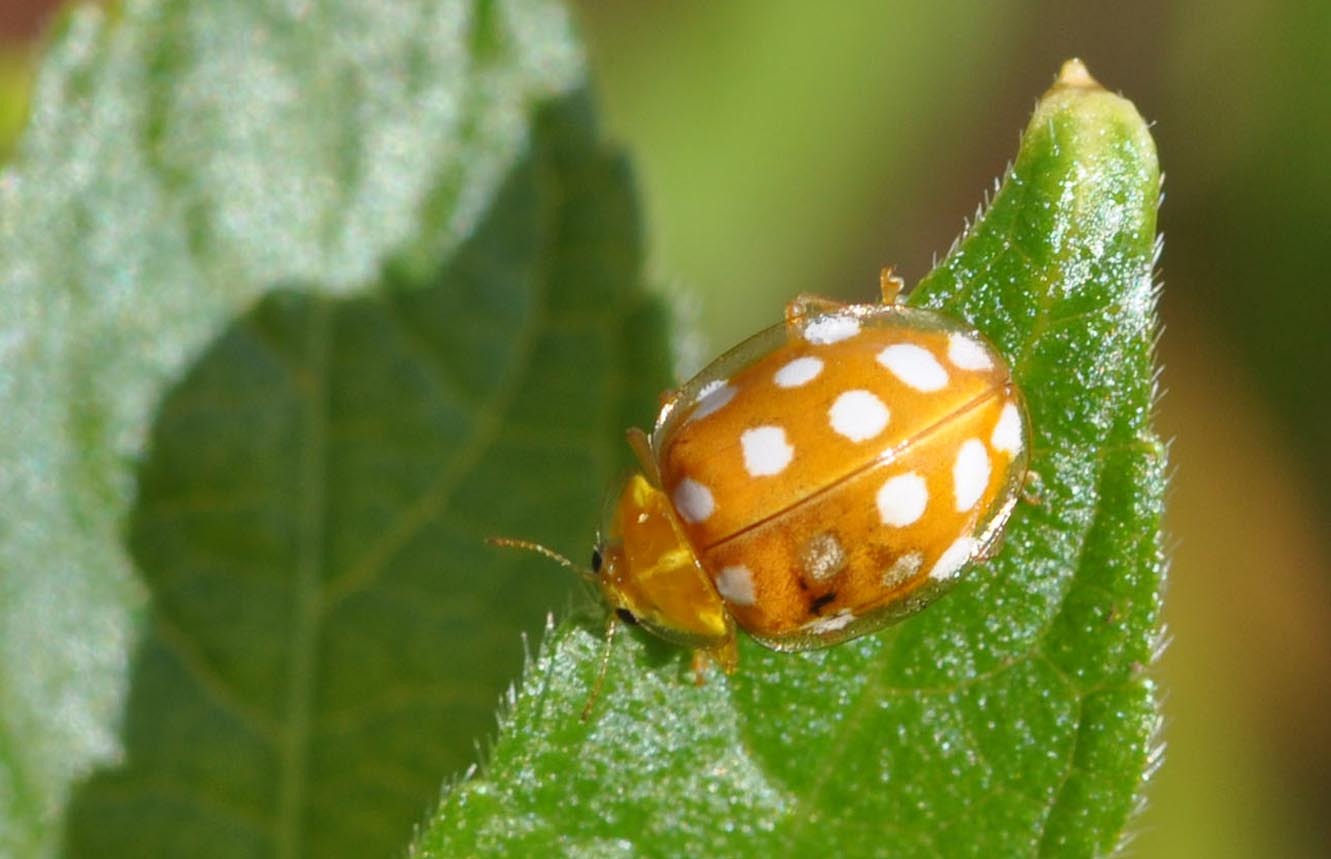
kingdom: Animalia
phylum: Arthropoda
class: Insecta
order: Coleoptera
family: Coccinellidae
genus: Halyzia
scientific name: Halyzia sedecimguttata
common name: Orange ladybird
